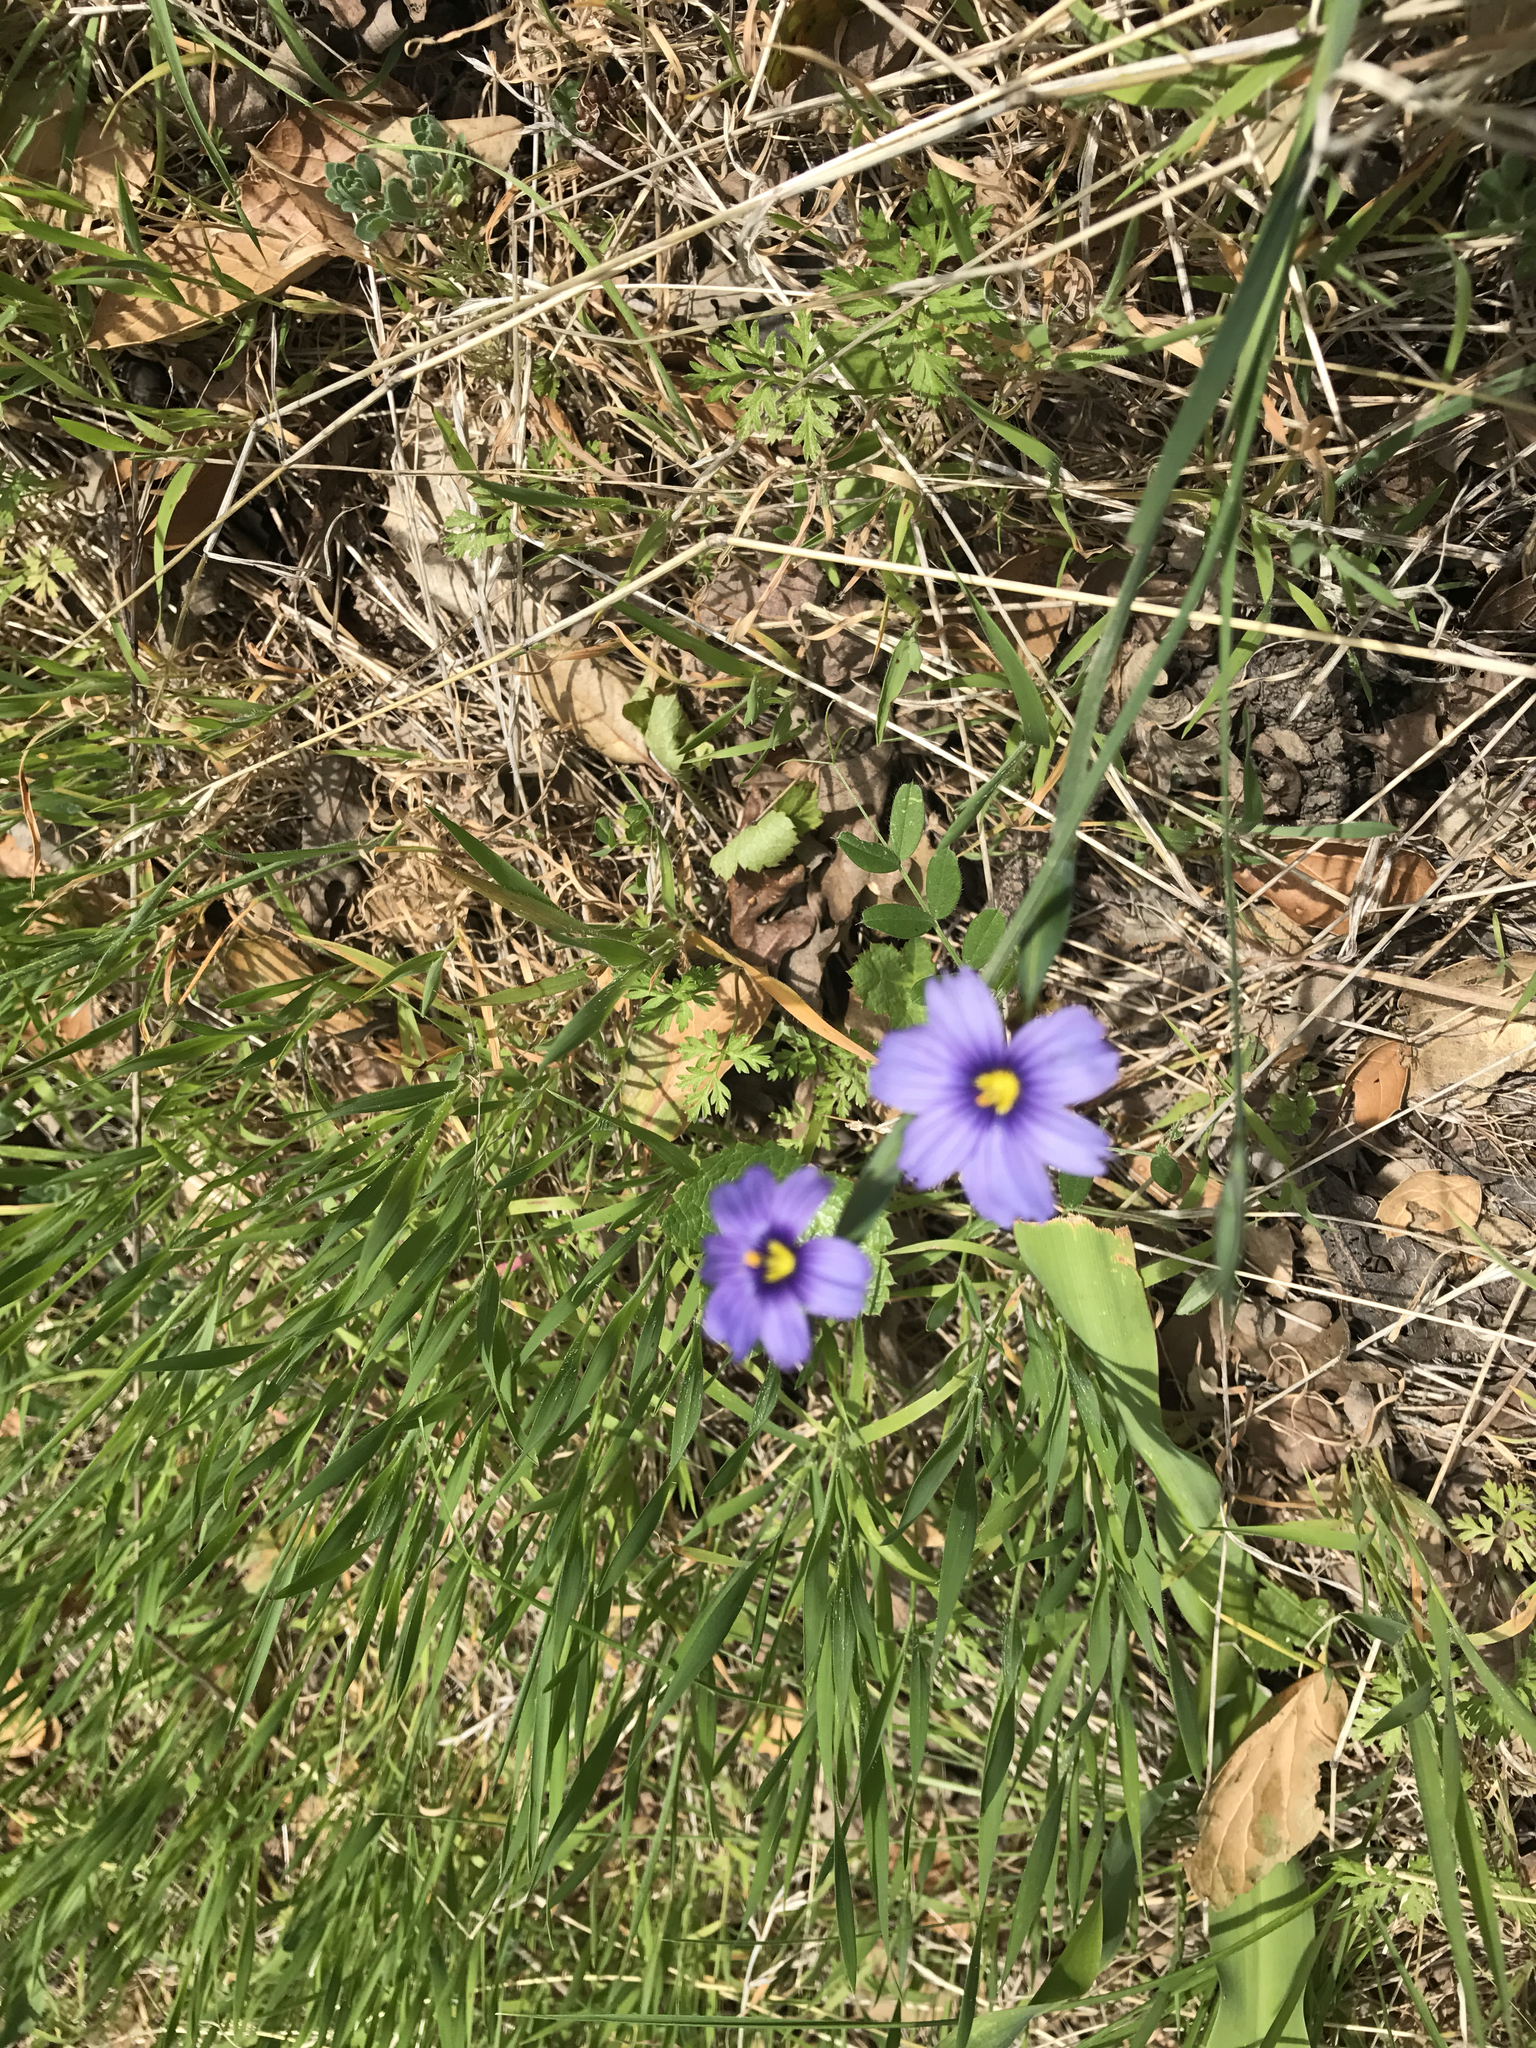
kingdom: Plantae
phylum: Tracheophyta
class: Liliopsida
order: Asparagales
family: Iridaceae
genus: Sisyrinchium
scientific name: Sisyrinchium bellum
